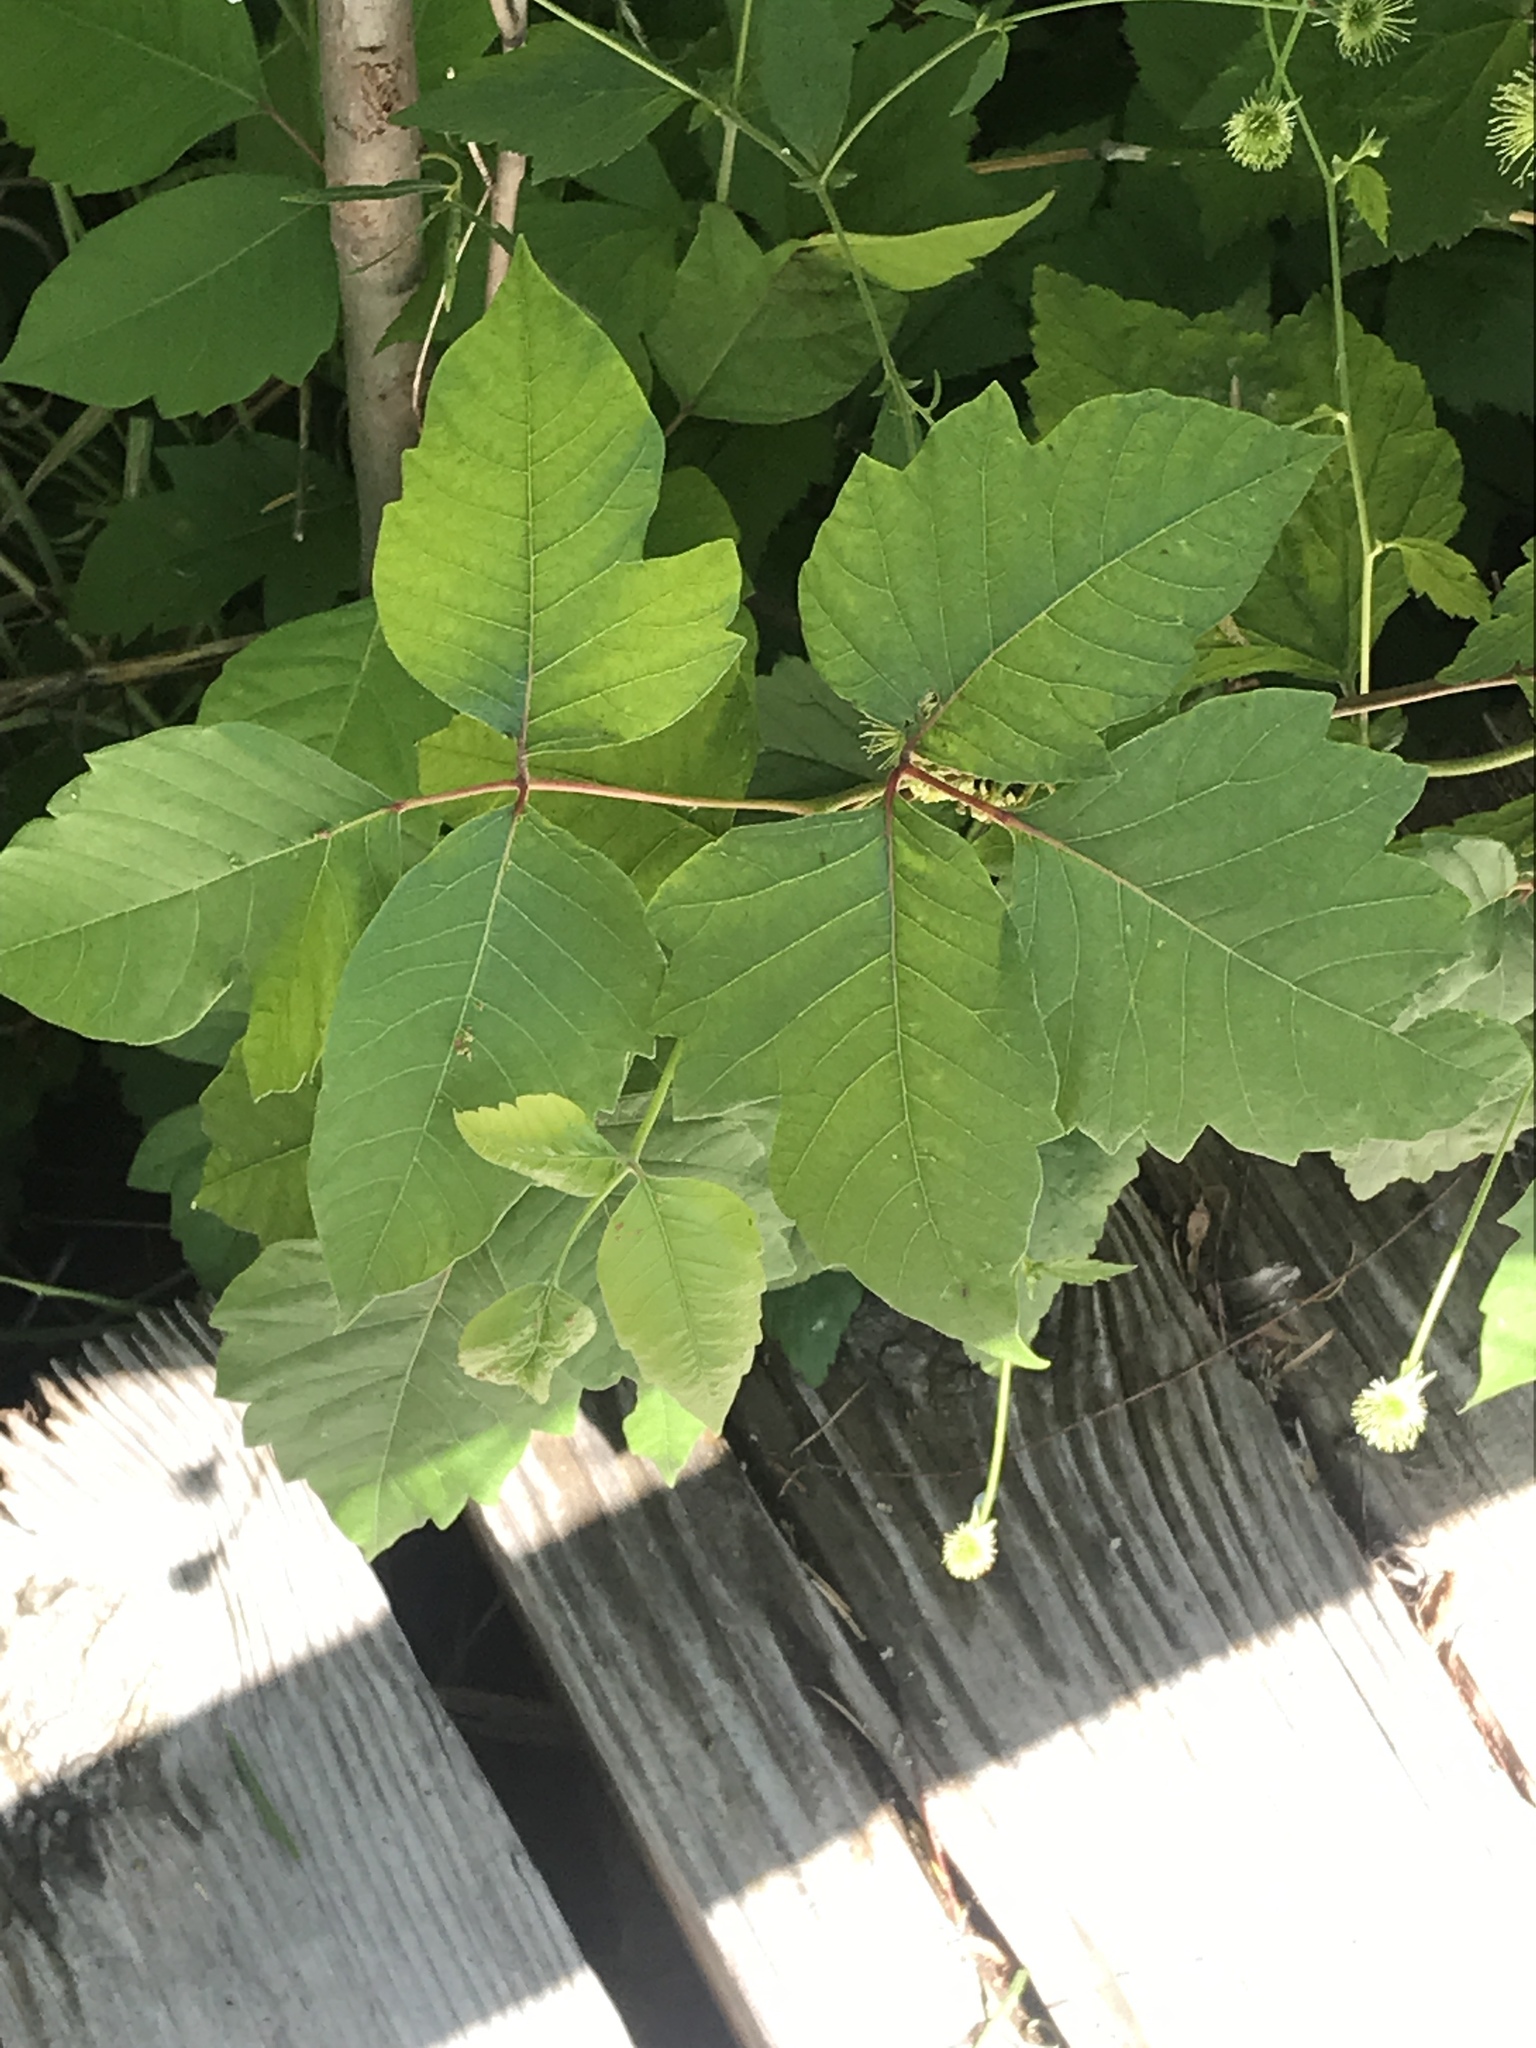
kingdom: Plantae
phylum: Tracheophyta
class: Magnoliopsida
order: Sapindales
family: Anacardiaceae
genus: Toxicodendron
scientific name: Toxicodendron radicans
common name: Poison ivy
